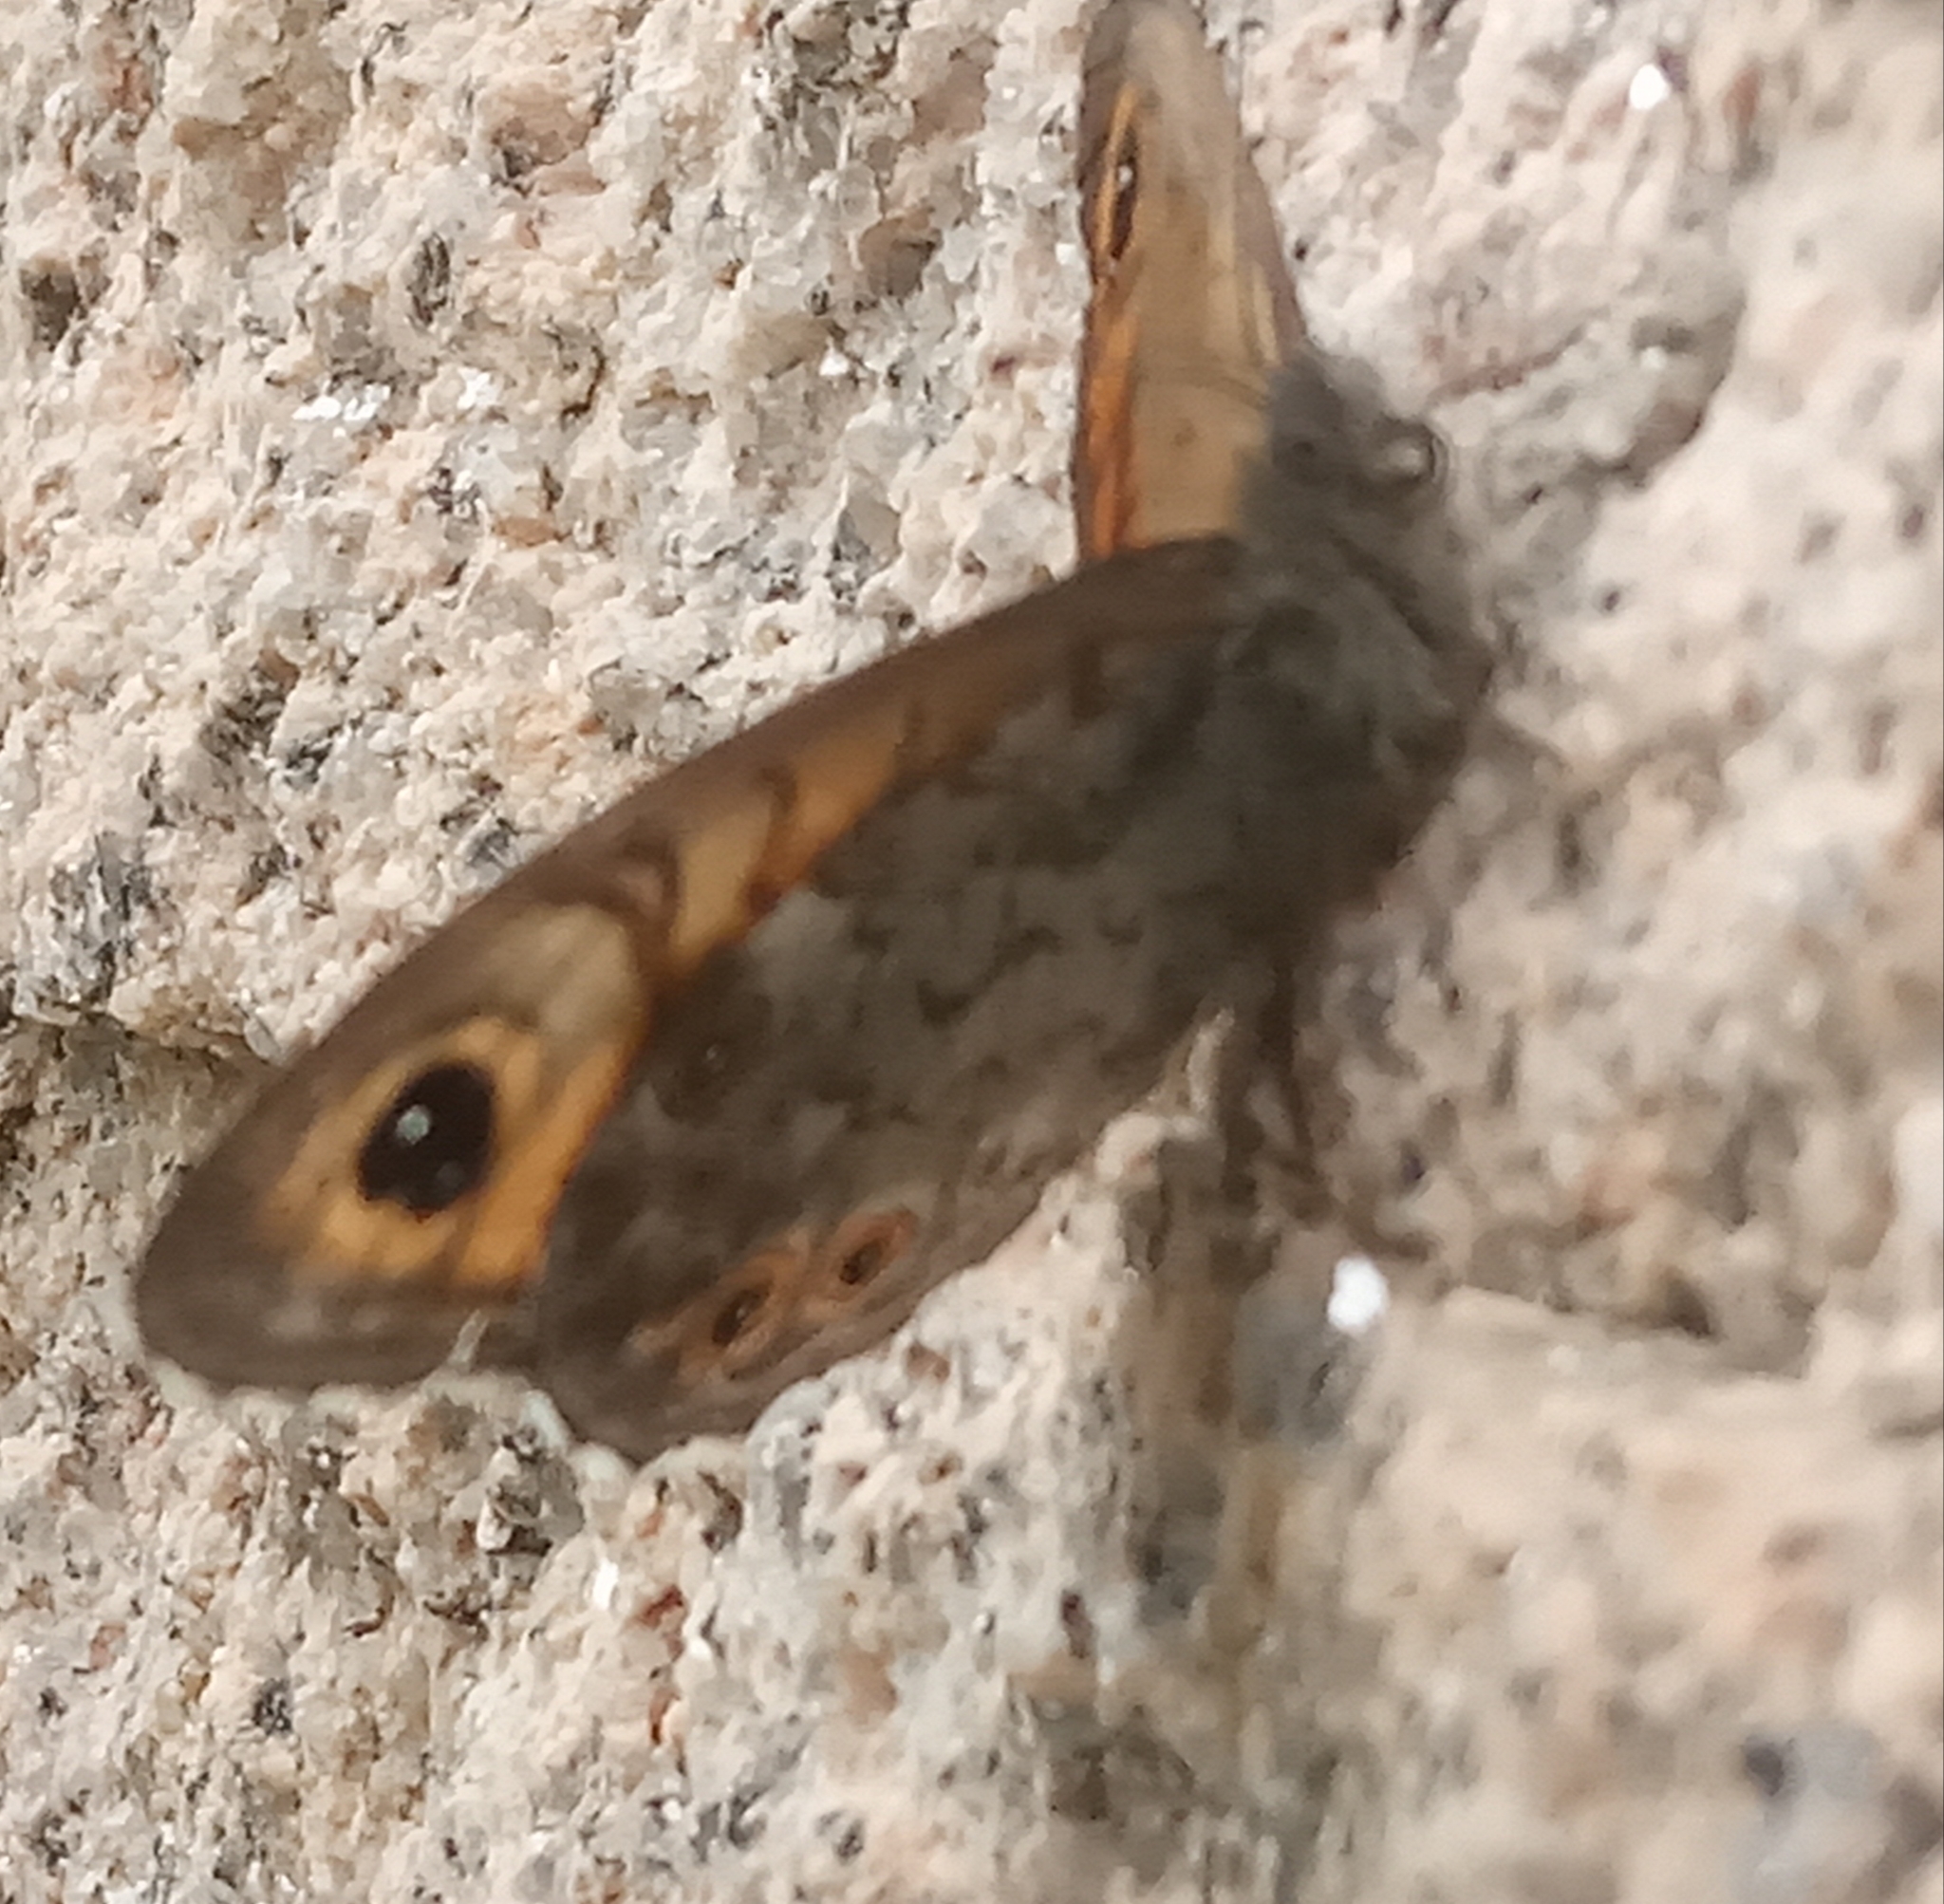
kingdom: Animalia
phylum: Arthropoda
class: Insecta
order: Lepidoptera
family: Nymphalidae
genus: Pararge
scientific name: Pararge Lasiommata maera
